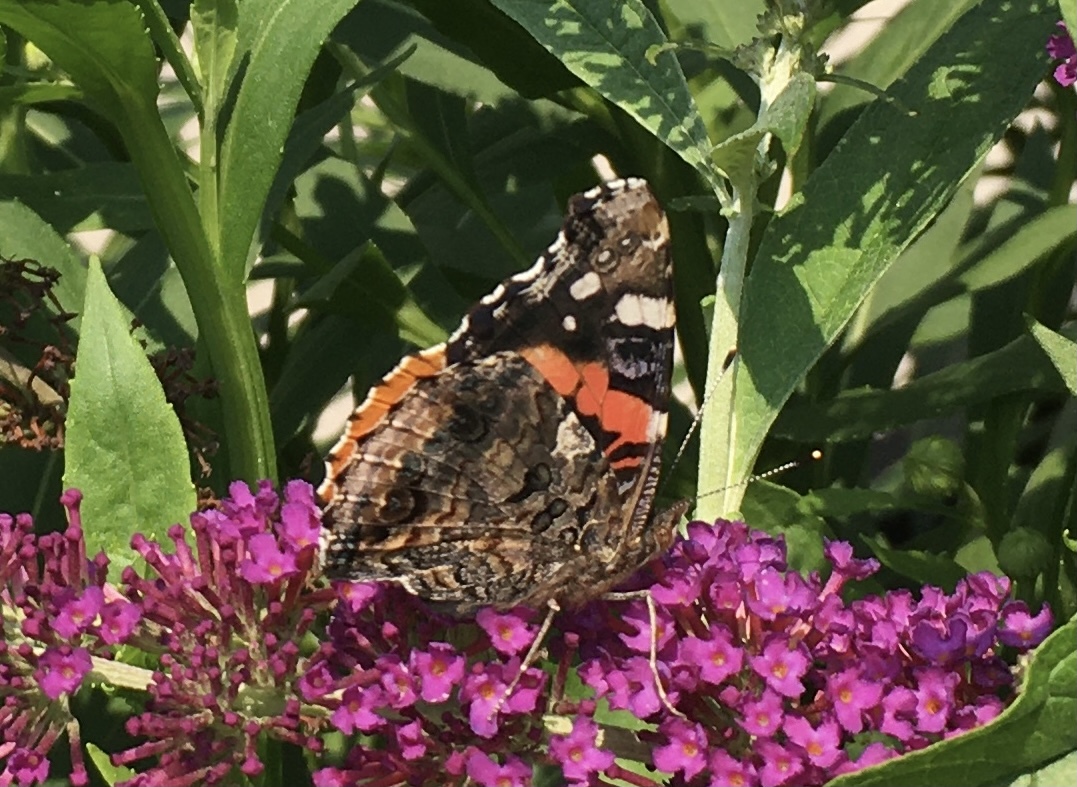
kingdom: Animalia
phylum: Arthropoda
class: Insecta
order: Lepidoptera
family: Nymphalidae
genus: Vanessa
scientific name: Vanessa atalanta
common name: Red admiral
